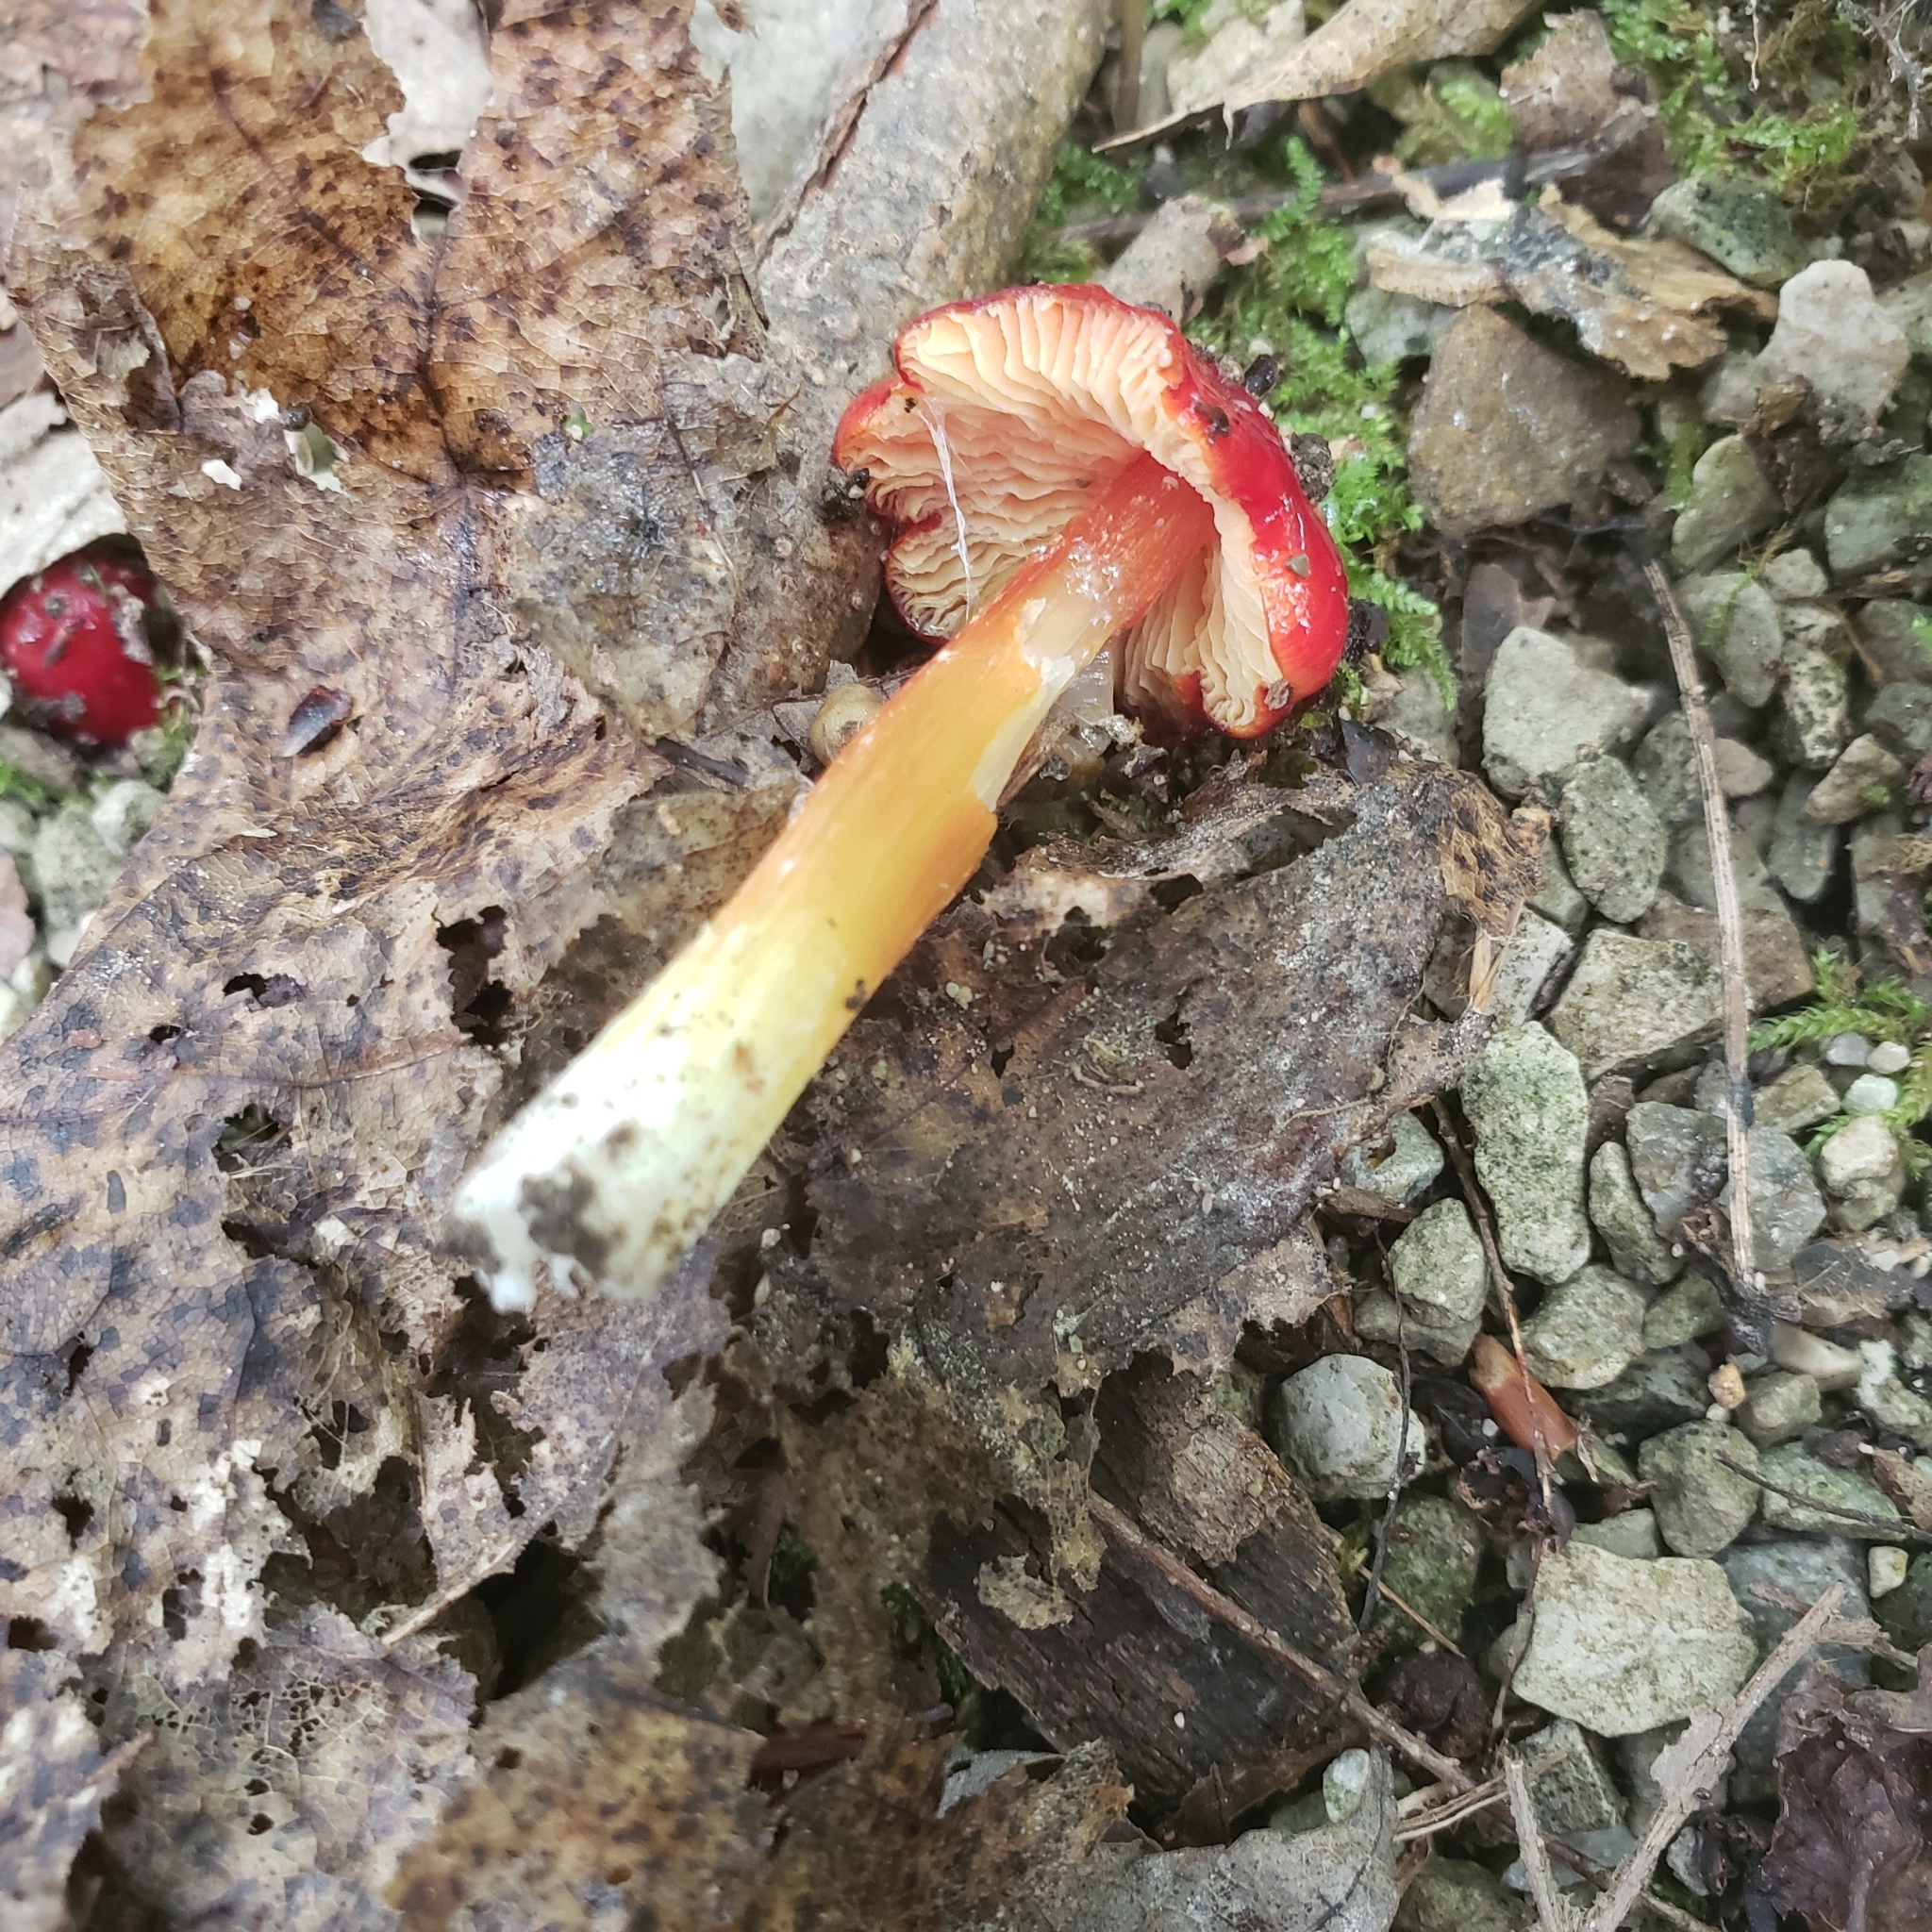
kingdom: Fungi
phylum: Basidiomycota
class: Agaricomycetes
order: Agaricales
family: Hygrophoraceae
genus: Hygrocybe
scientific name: Hygrocybe acutoconica
